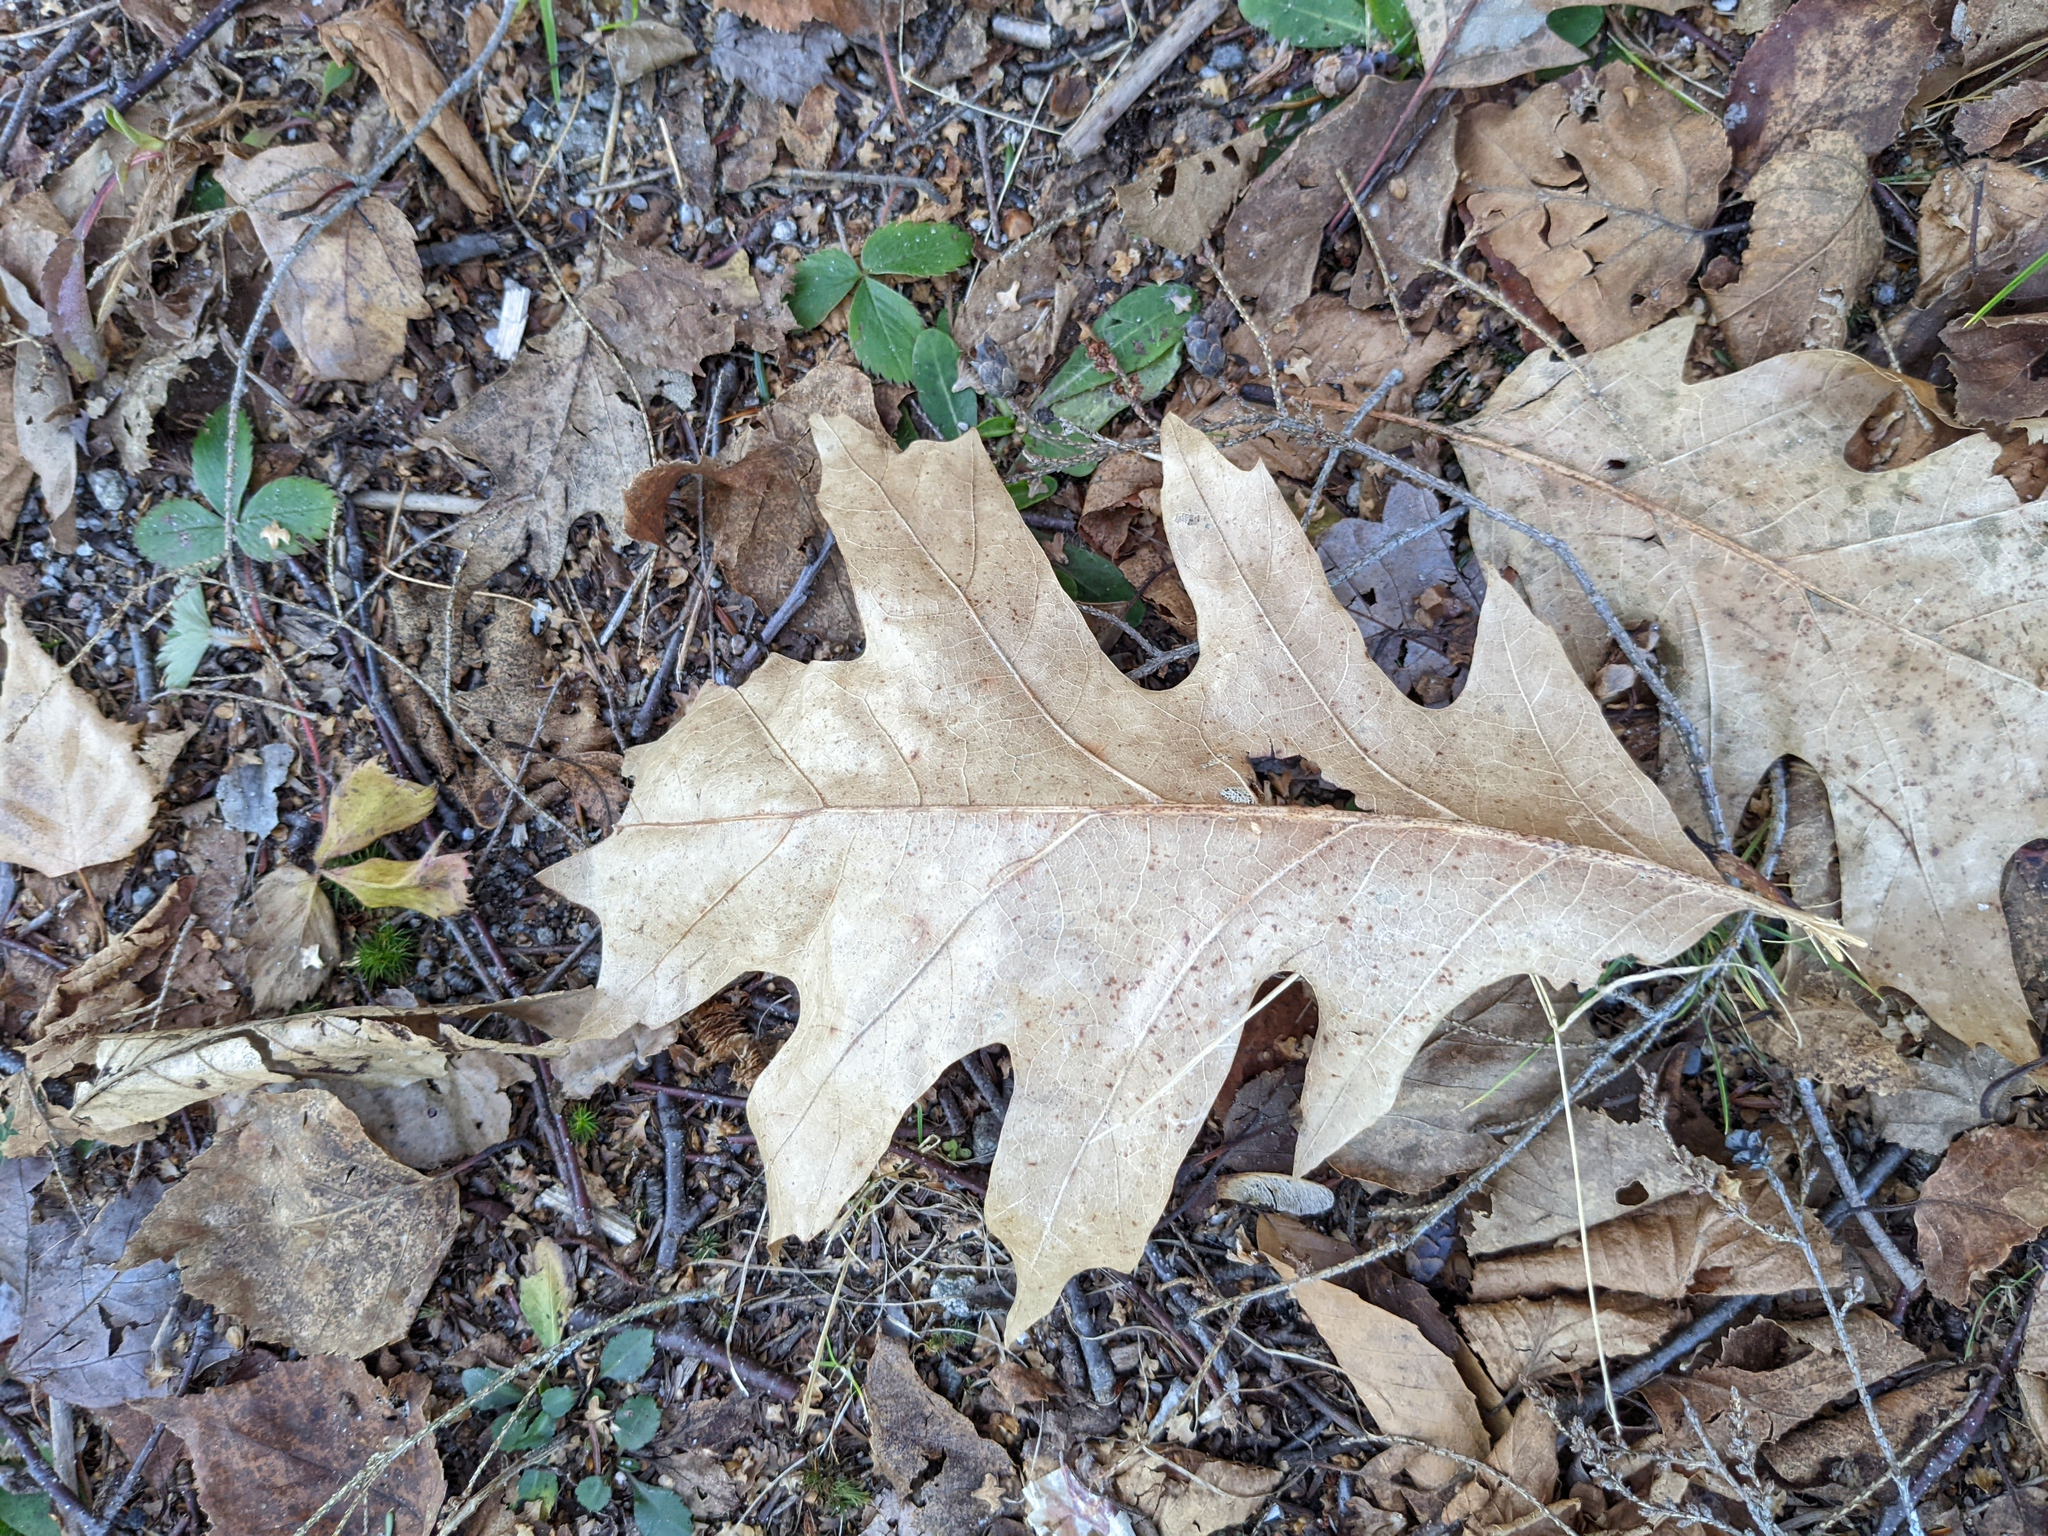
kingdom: Plantae
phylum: Tracheophyta
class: Magnoliopsida
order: Fagales
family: Fagaceae
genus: Quercus
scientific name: Quercus rubra
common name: Red oak
